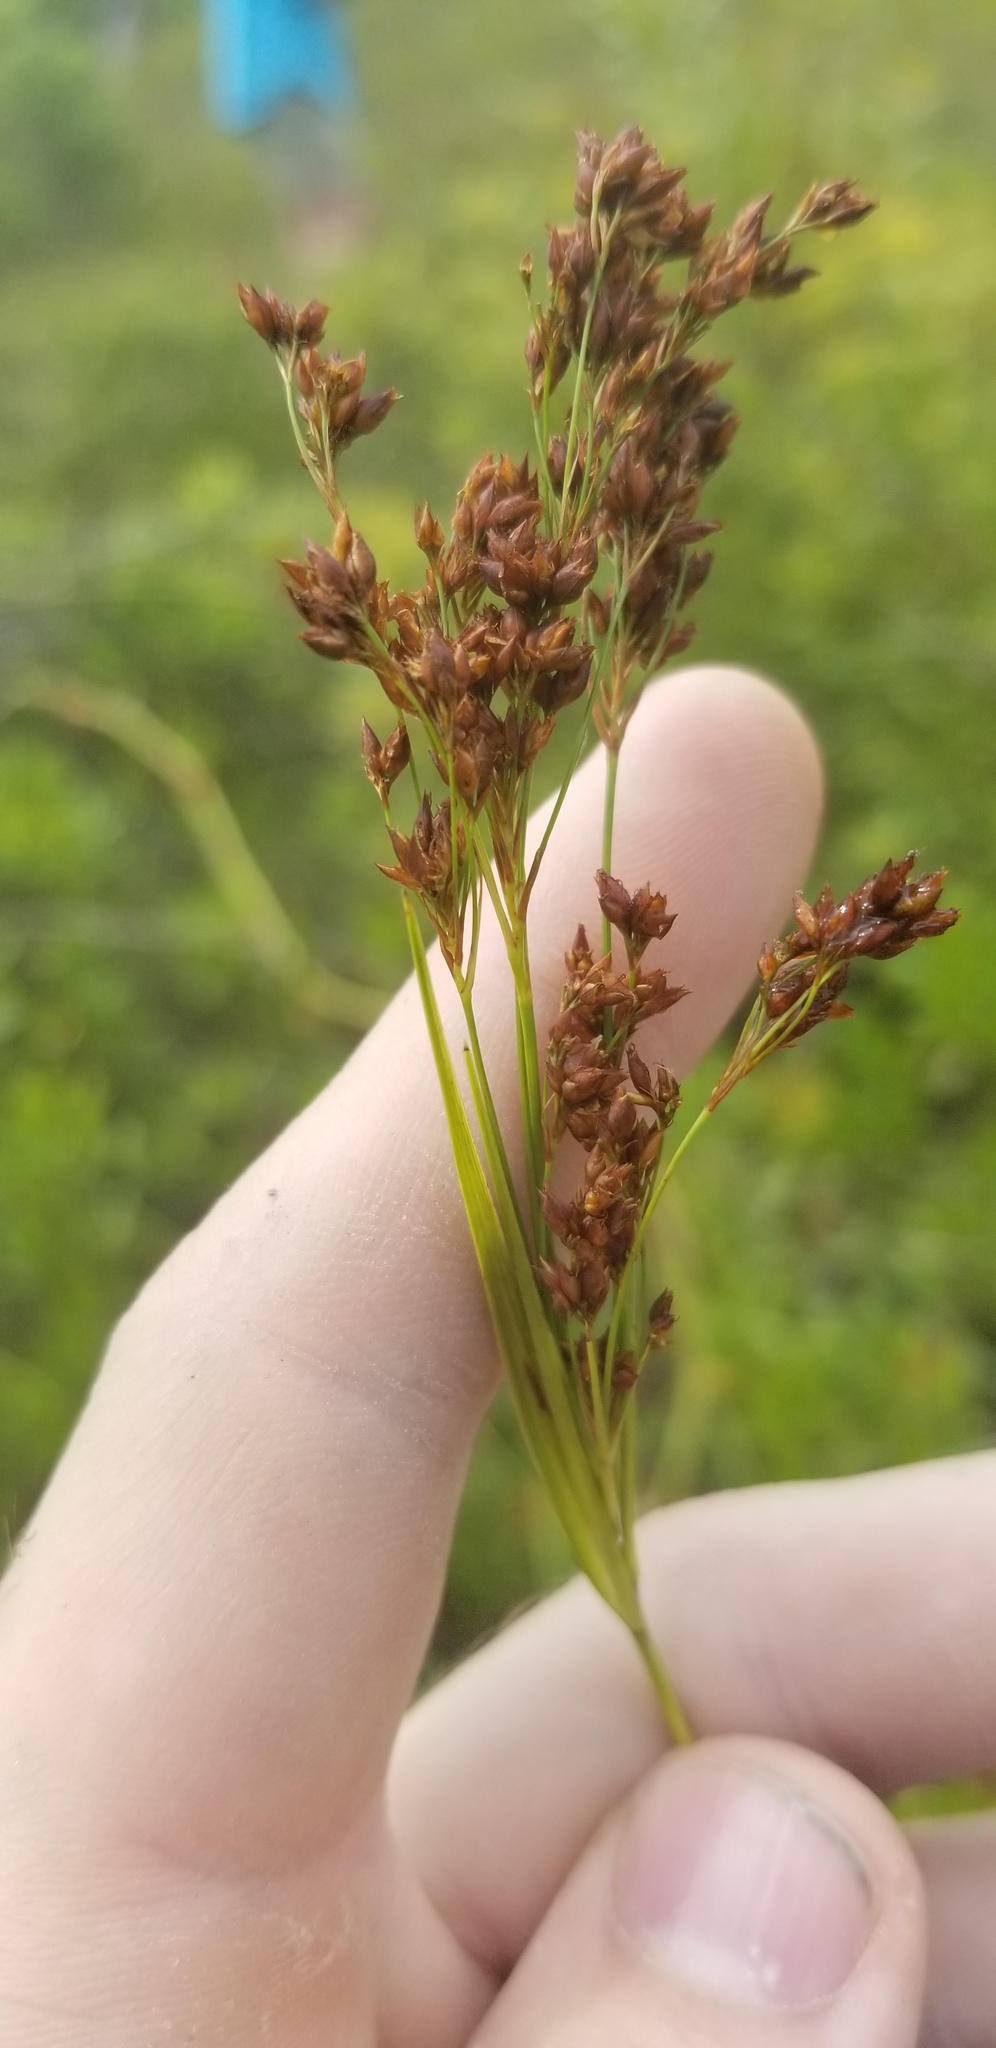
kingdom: Plantae
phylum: Tracheophyta
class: Liliopsida
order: Poales
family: Cyperaceae
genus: Rhynchospora
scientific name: Rhynchospora elliottii
